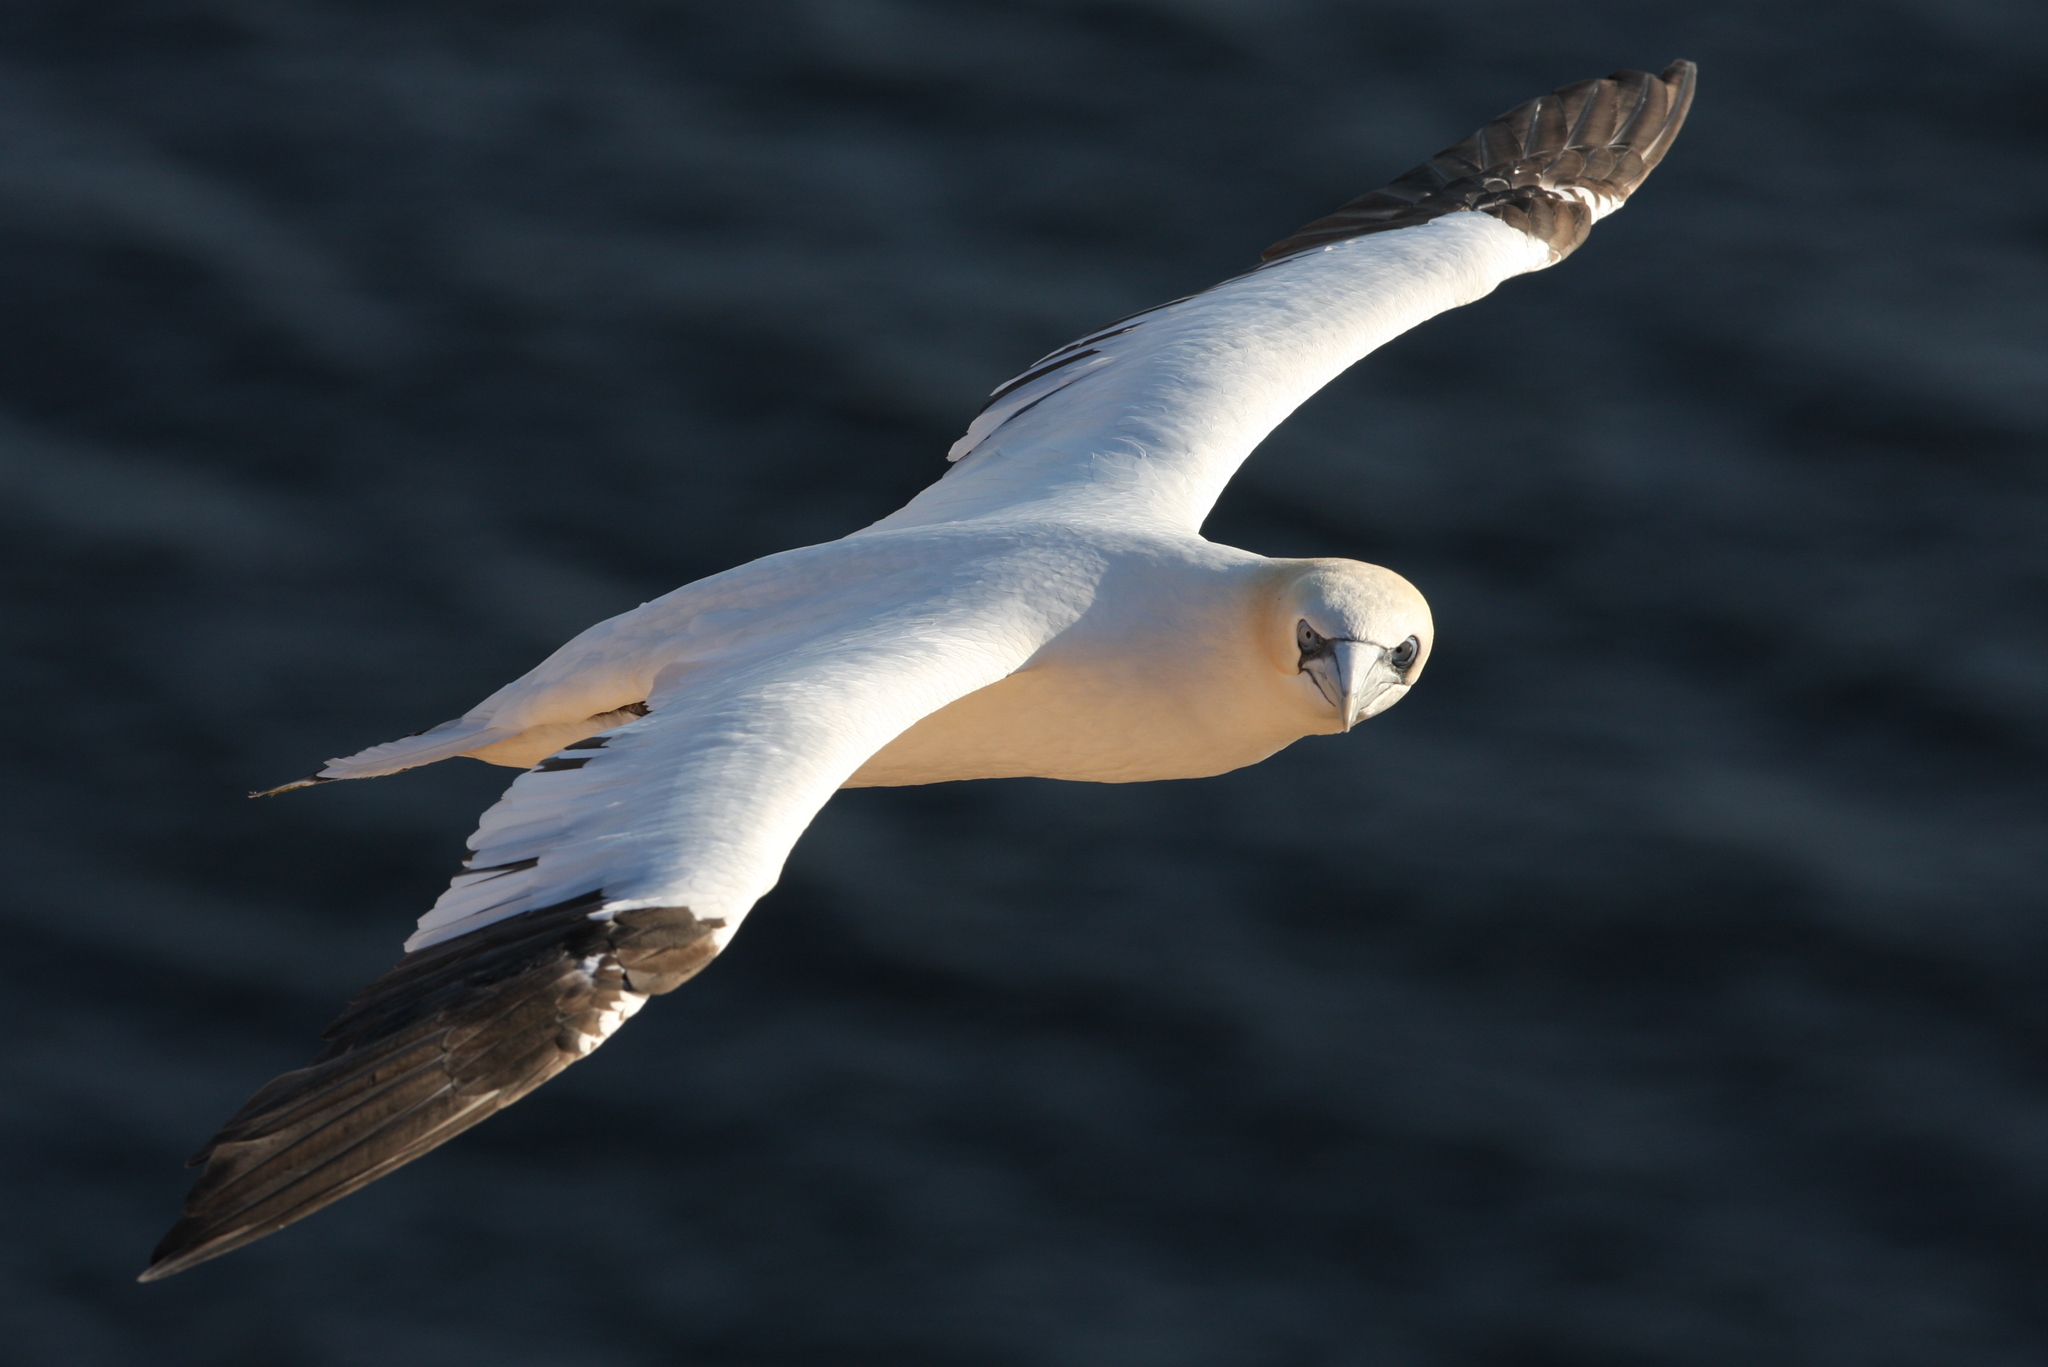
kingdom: Animalia
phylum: Chordata
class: Aves
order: Suliformes
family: Sulidae
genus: Morus
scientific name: Morus bassanus
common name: Northern gannet
